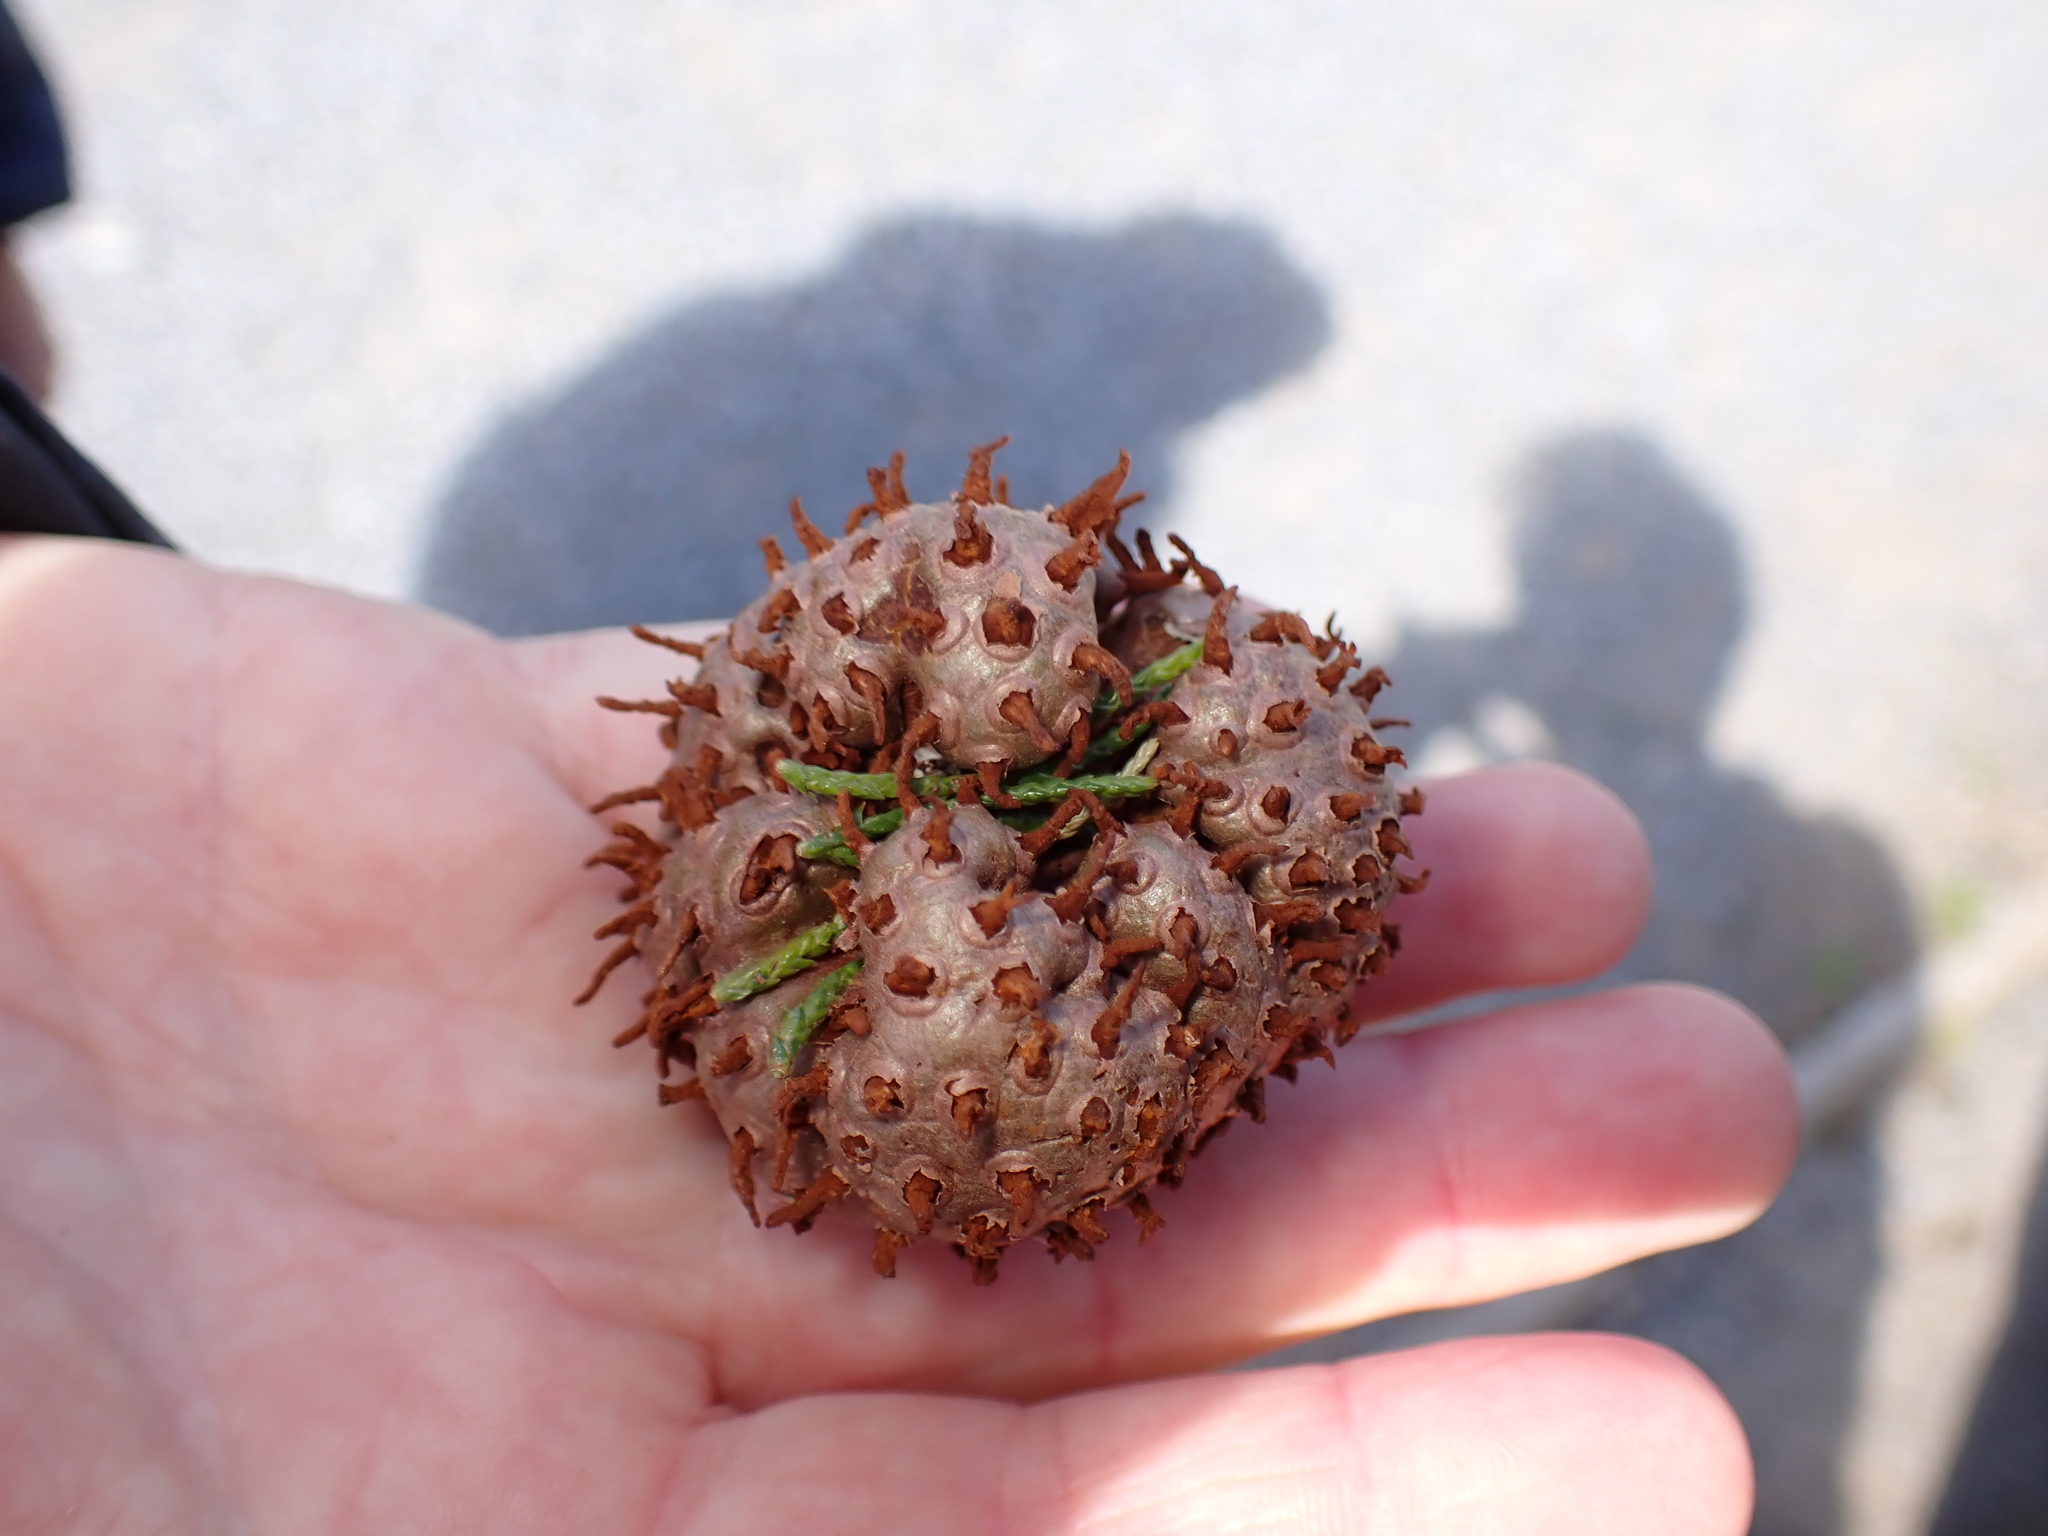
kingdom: Fungi
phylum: Basidiomycota
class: Pucciniomycetes
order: Pucciniales
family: Gymnosporangiaceae
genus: Gymnosporangium
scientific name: Gymnosporangium juniperi-virginianae
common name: Juniper-apple rust
